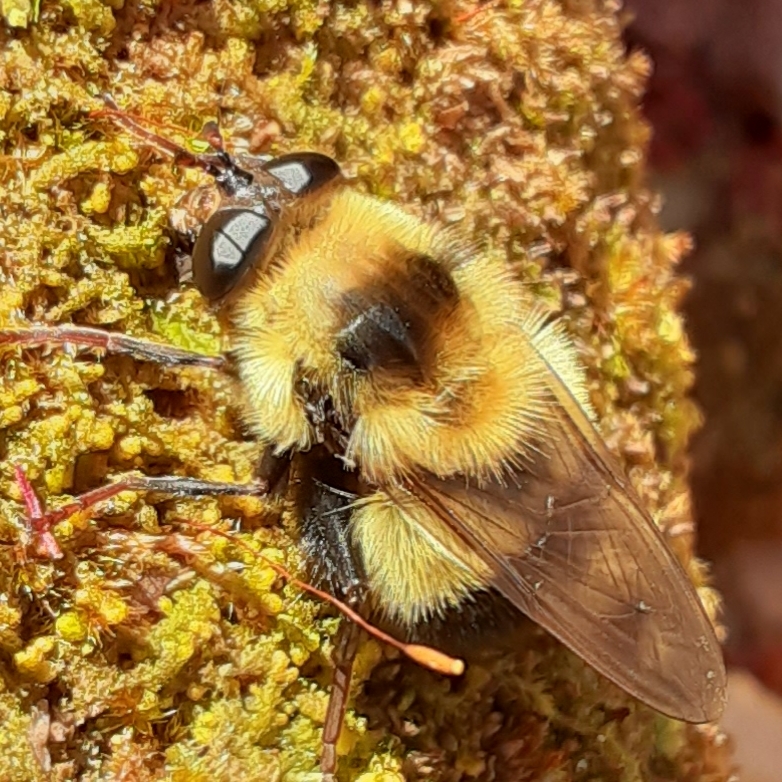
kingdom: Animalia
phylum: Arthropoda
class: Insecta
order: Diptera
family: Syrphidae
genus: Criorhina
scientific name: Criorhina nigriventris
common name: Bare-cheeked bumble fly
